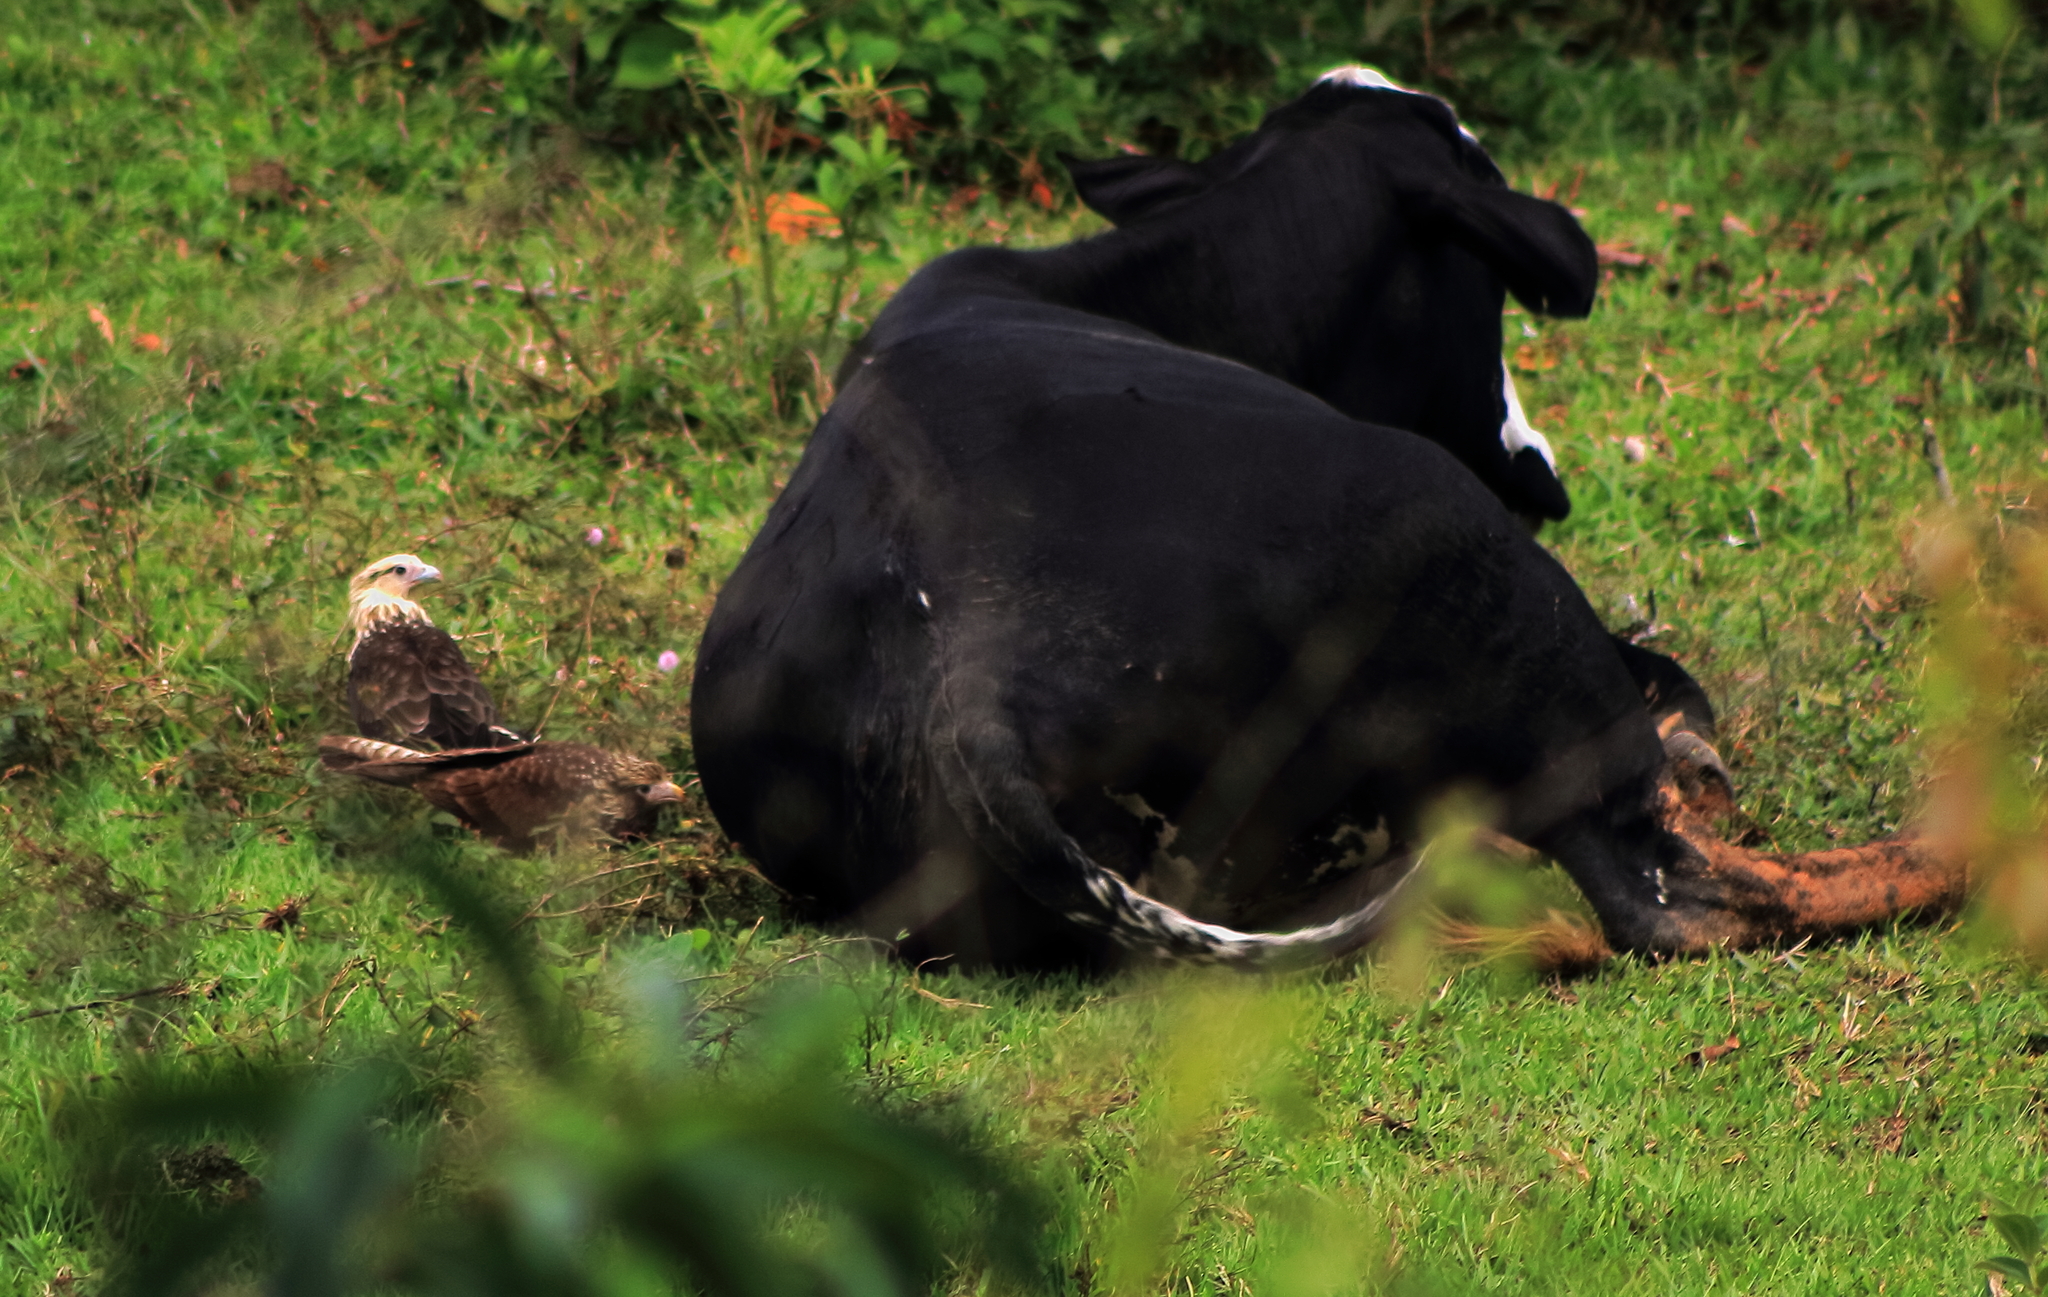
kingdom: Animalia
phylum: Chordata
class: Aves
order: Falconiformes
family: Falconidae
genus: Daptrius
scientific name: Daptrius
